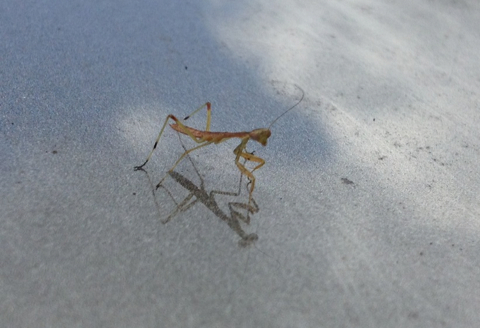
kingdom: Animalia
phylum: Arthropoda
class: Insecta
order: Mantodea
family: Mantidae
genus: Stagmomantis
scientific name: Stagmomantis carolina
